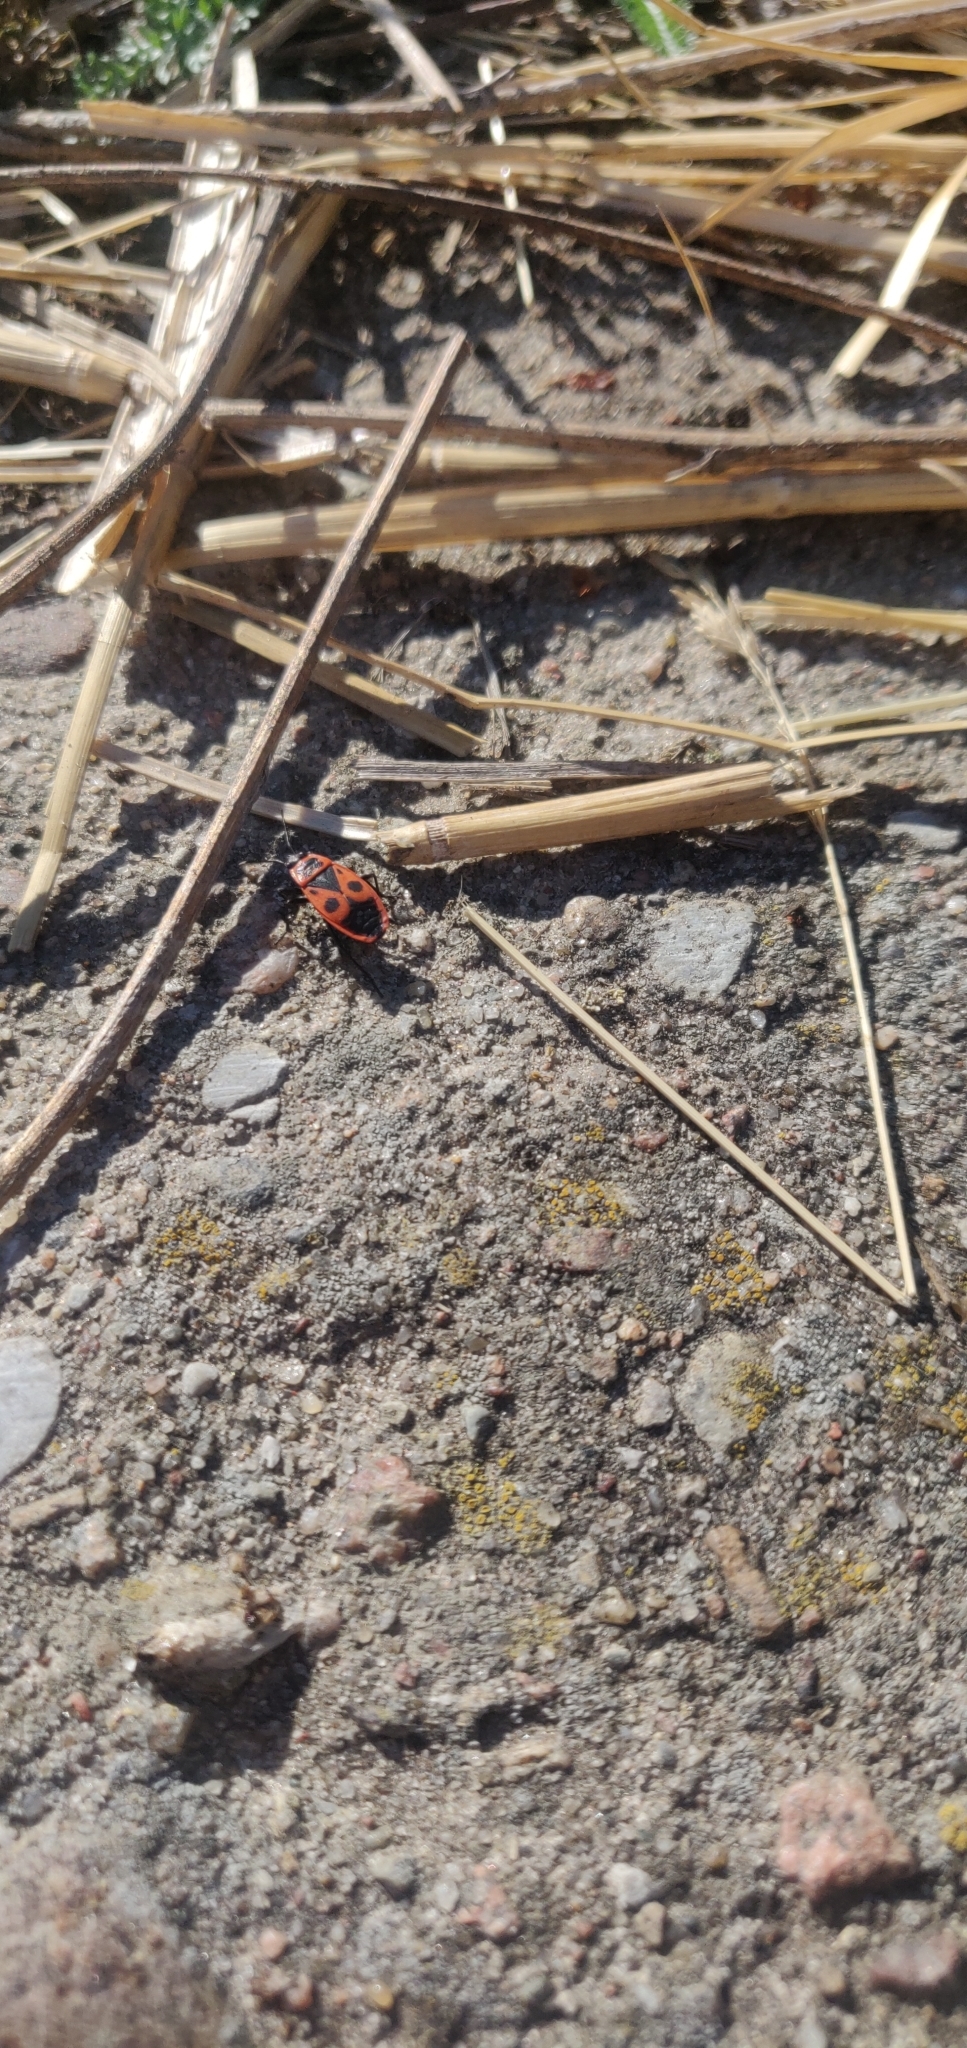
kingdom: Animalia
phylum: Arthropoda
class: Insecta
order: Hemiptera
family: Pyrrhocoridae
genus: Pyrrhocoris
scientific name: Pyrrhocoris apterus
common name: Firebug
